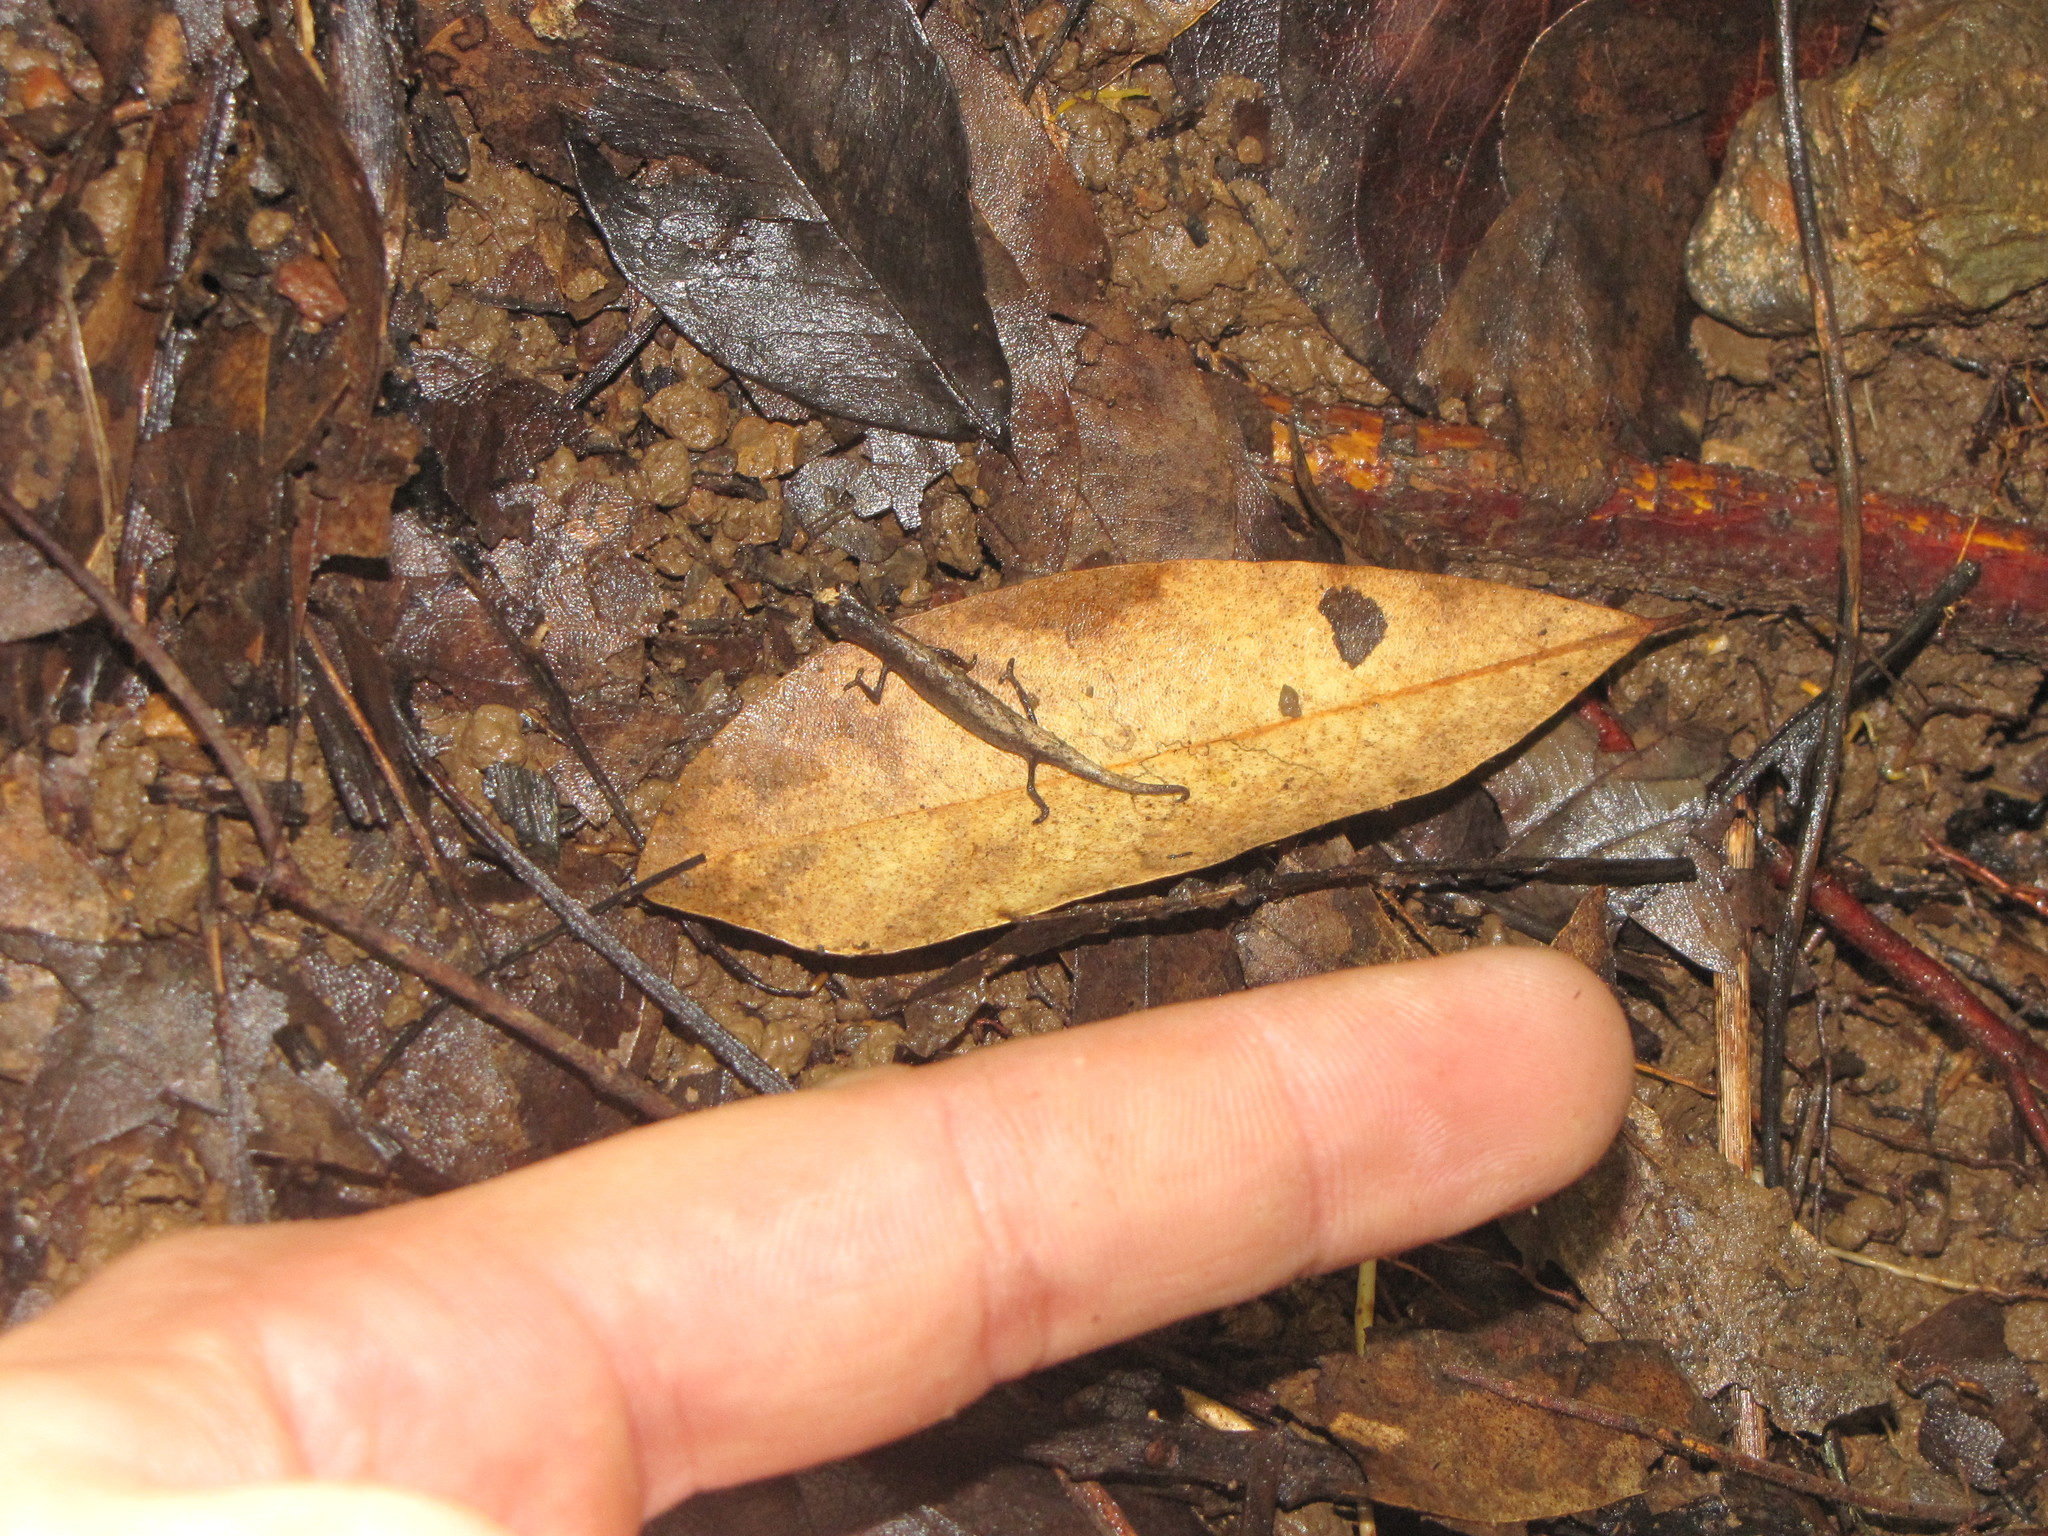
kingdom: Animalia
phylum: Chordata
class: Squamata
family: Chamaeleonidae
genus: Brookesia
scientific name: Brookesia minima
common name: Minute leaf chameleon
